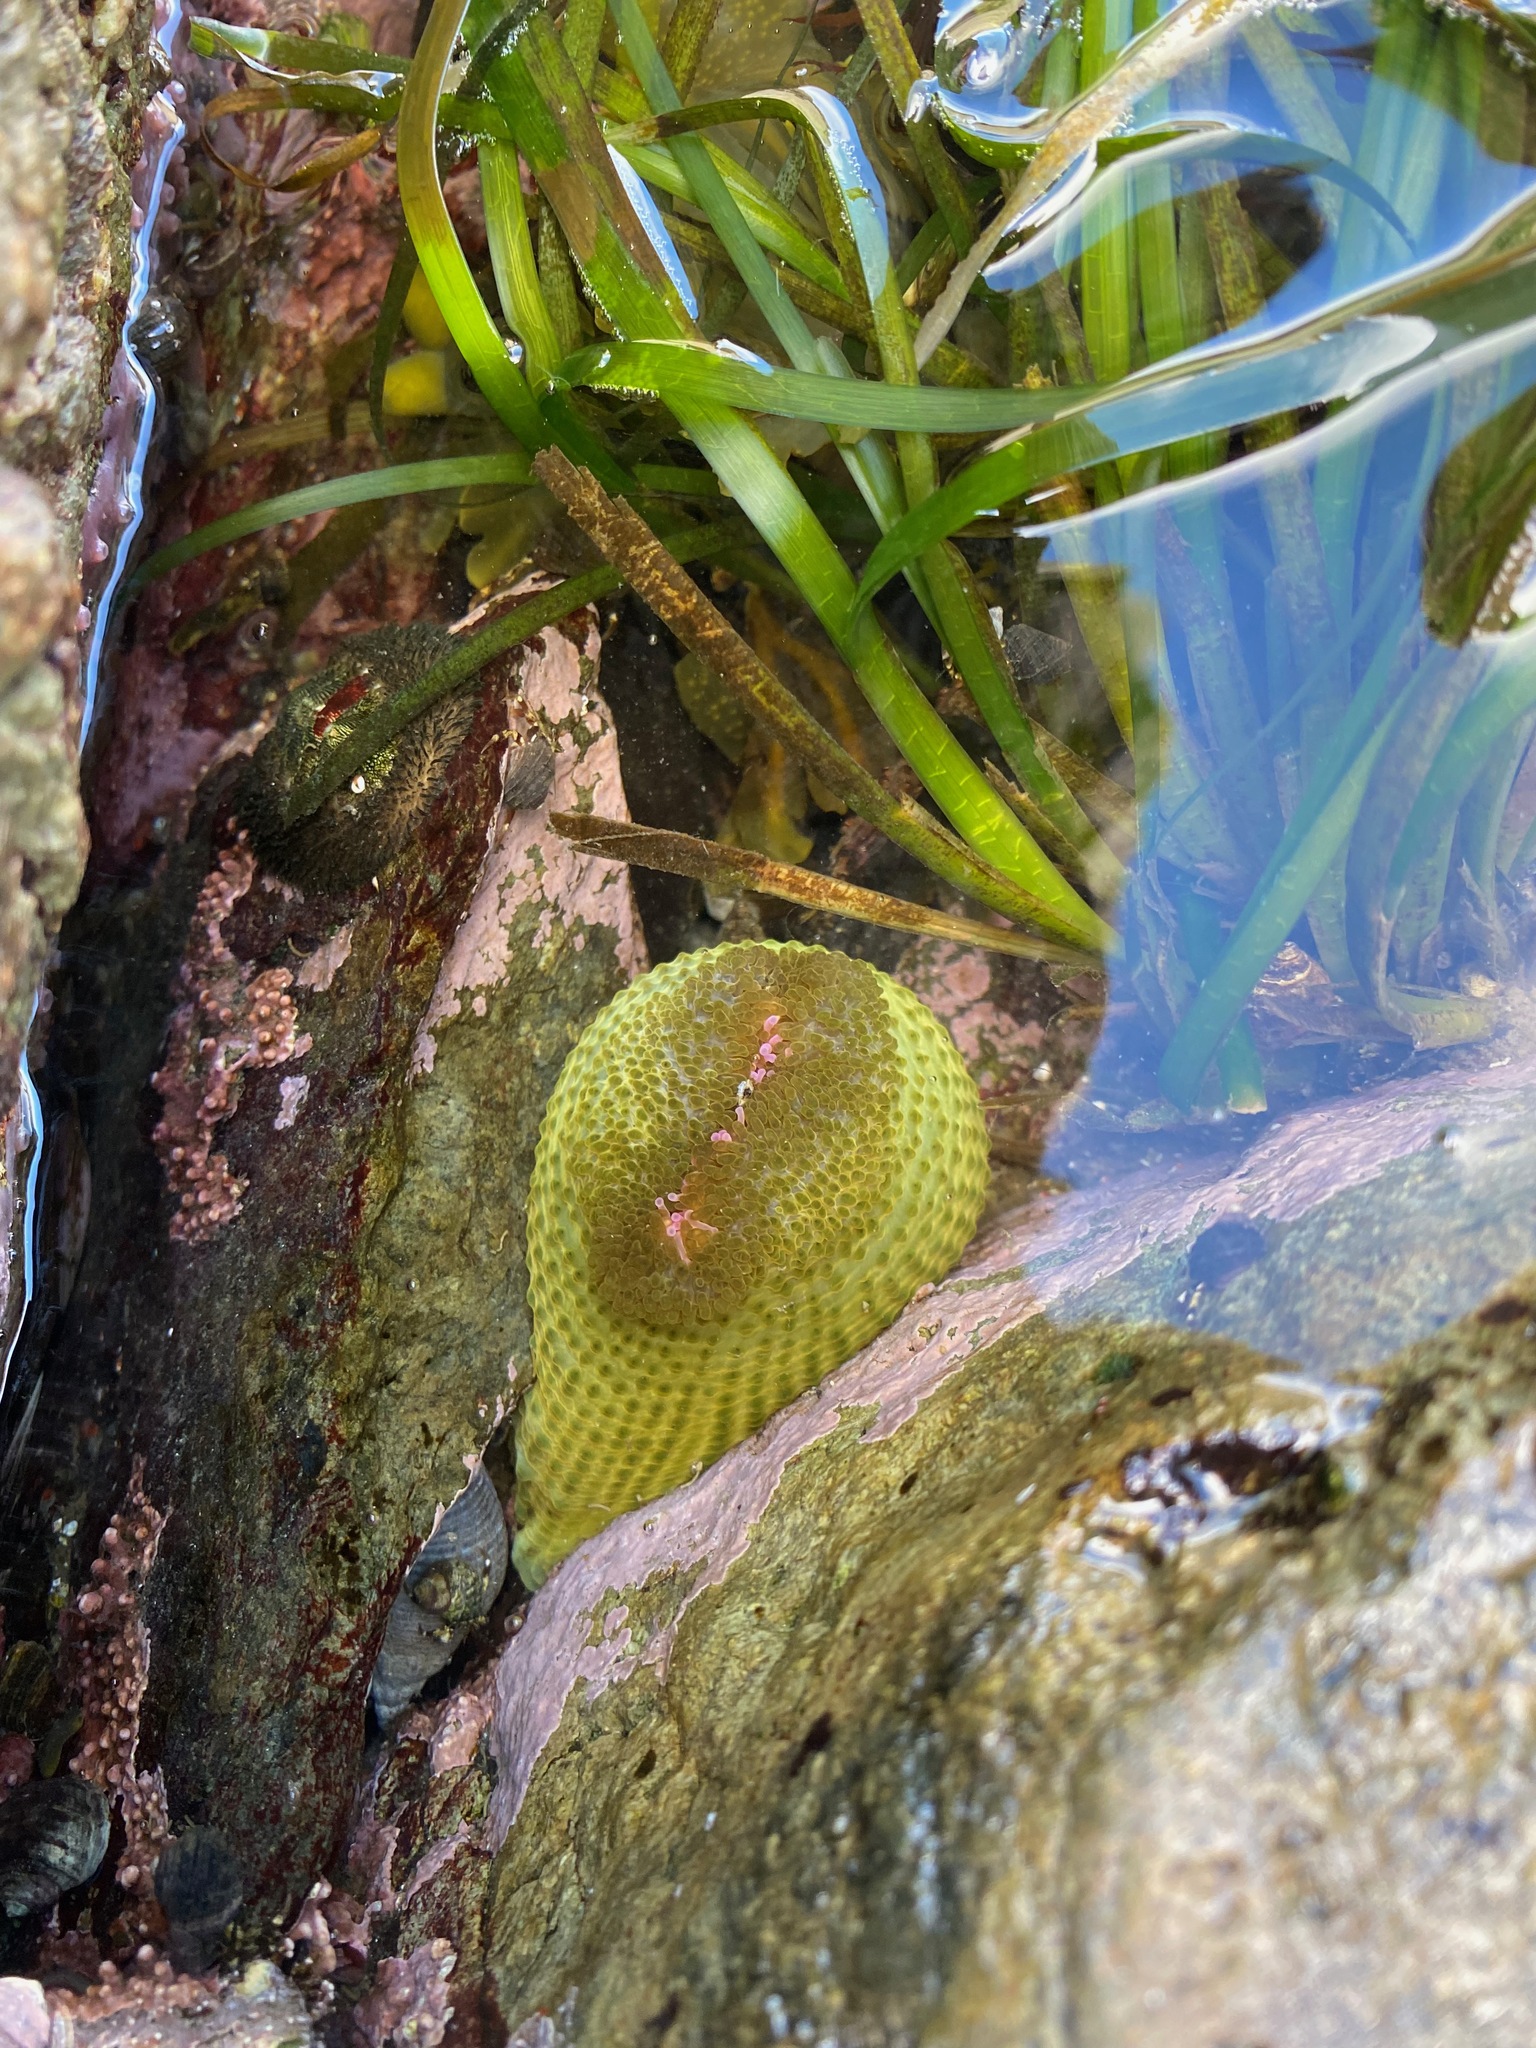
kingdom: Animalia
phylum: Cnidaria
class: Anthozoa
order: Actiniaria
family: Actiniidae
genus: Anthopleura
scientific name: Anthopleura elegantissima
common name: Clonal anemone
